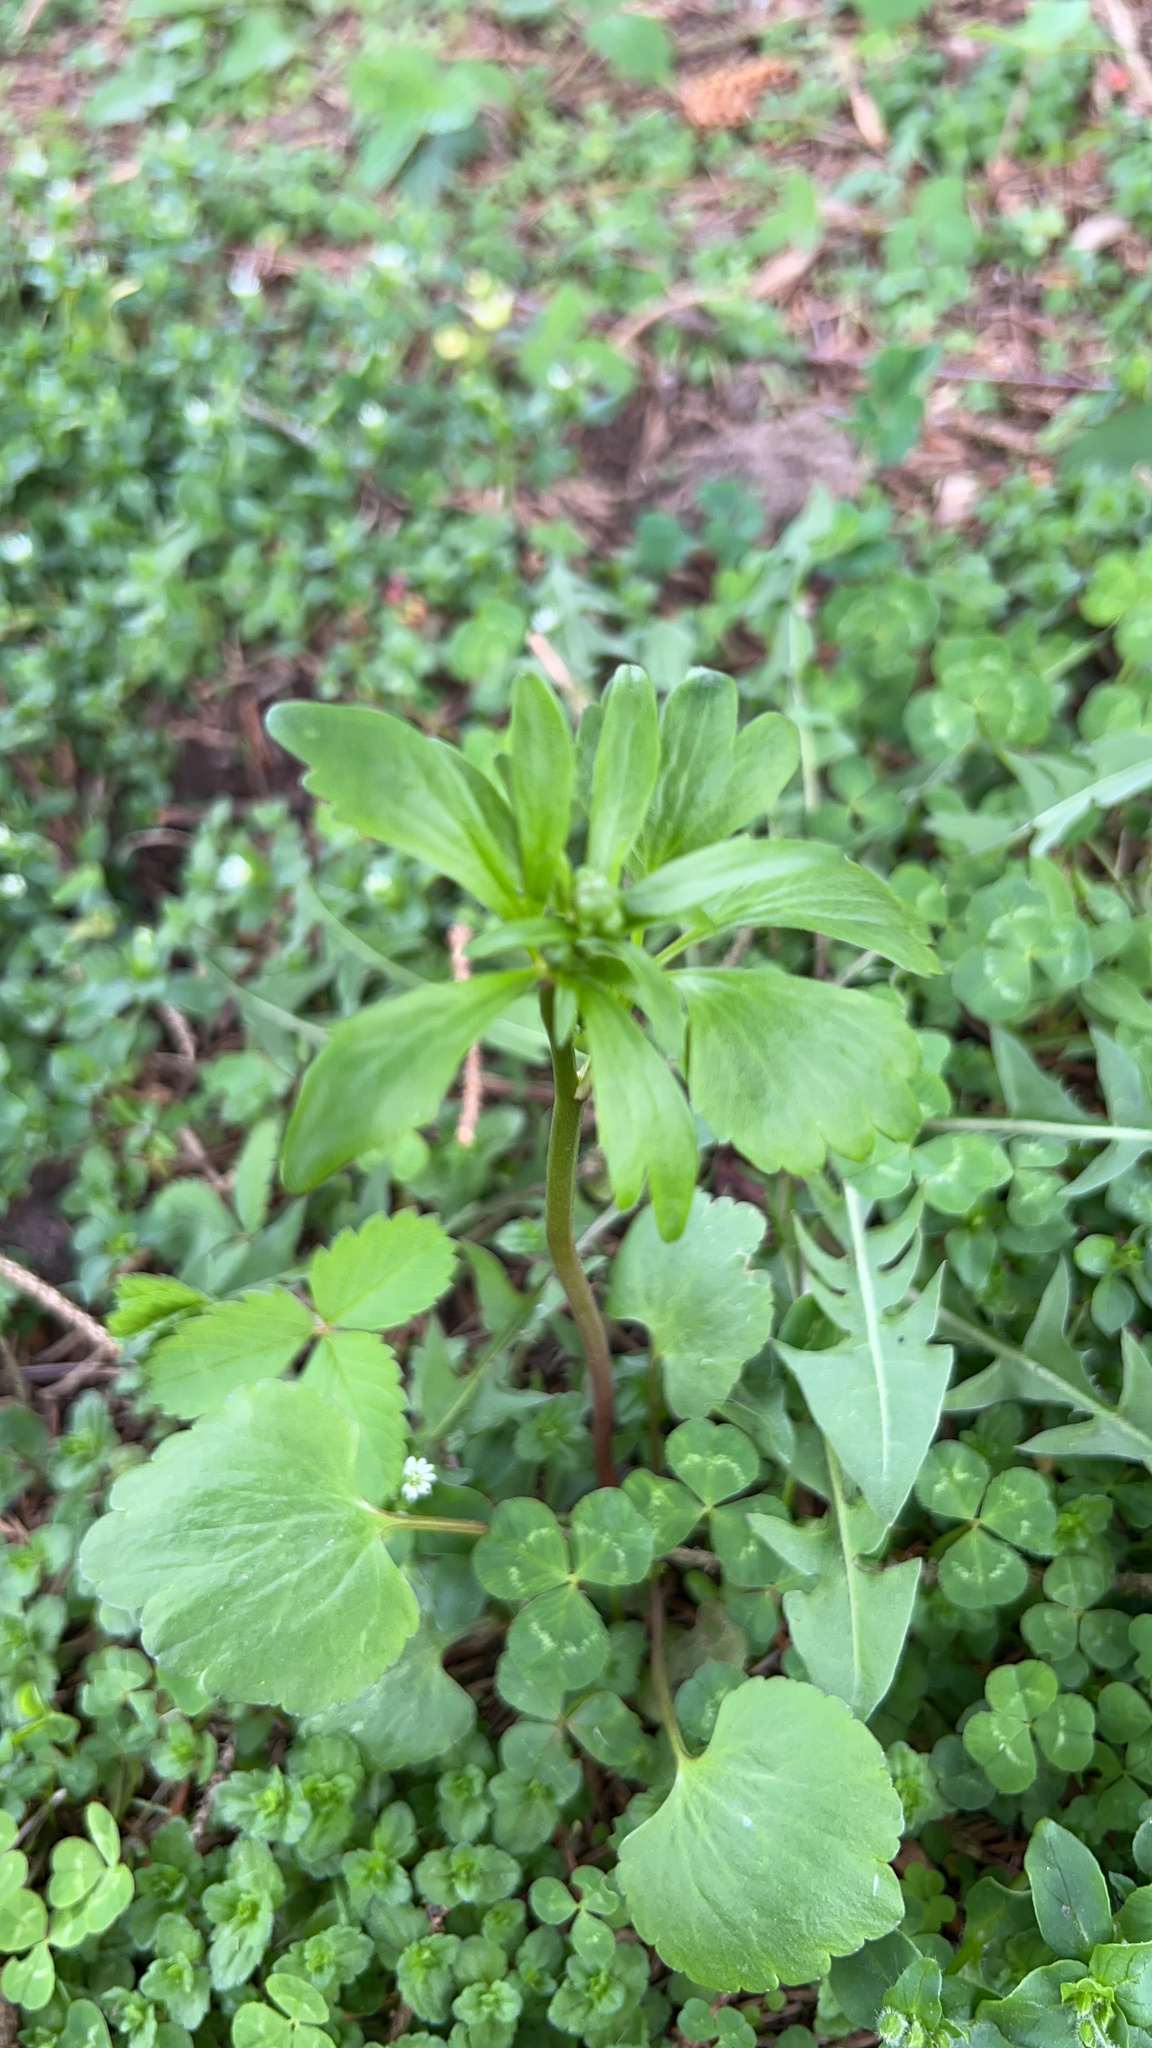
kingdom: Plantae
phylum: Tracheophyta
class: Magnoliopsida
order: Ranunculales
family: Ranunculaceae
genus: Ranunculus
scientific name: Ranunculus abortivus
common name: Early wood buttercup
